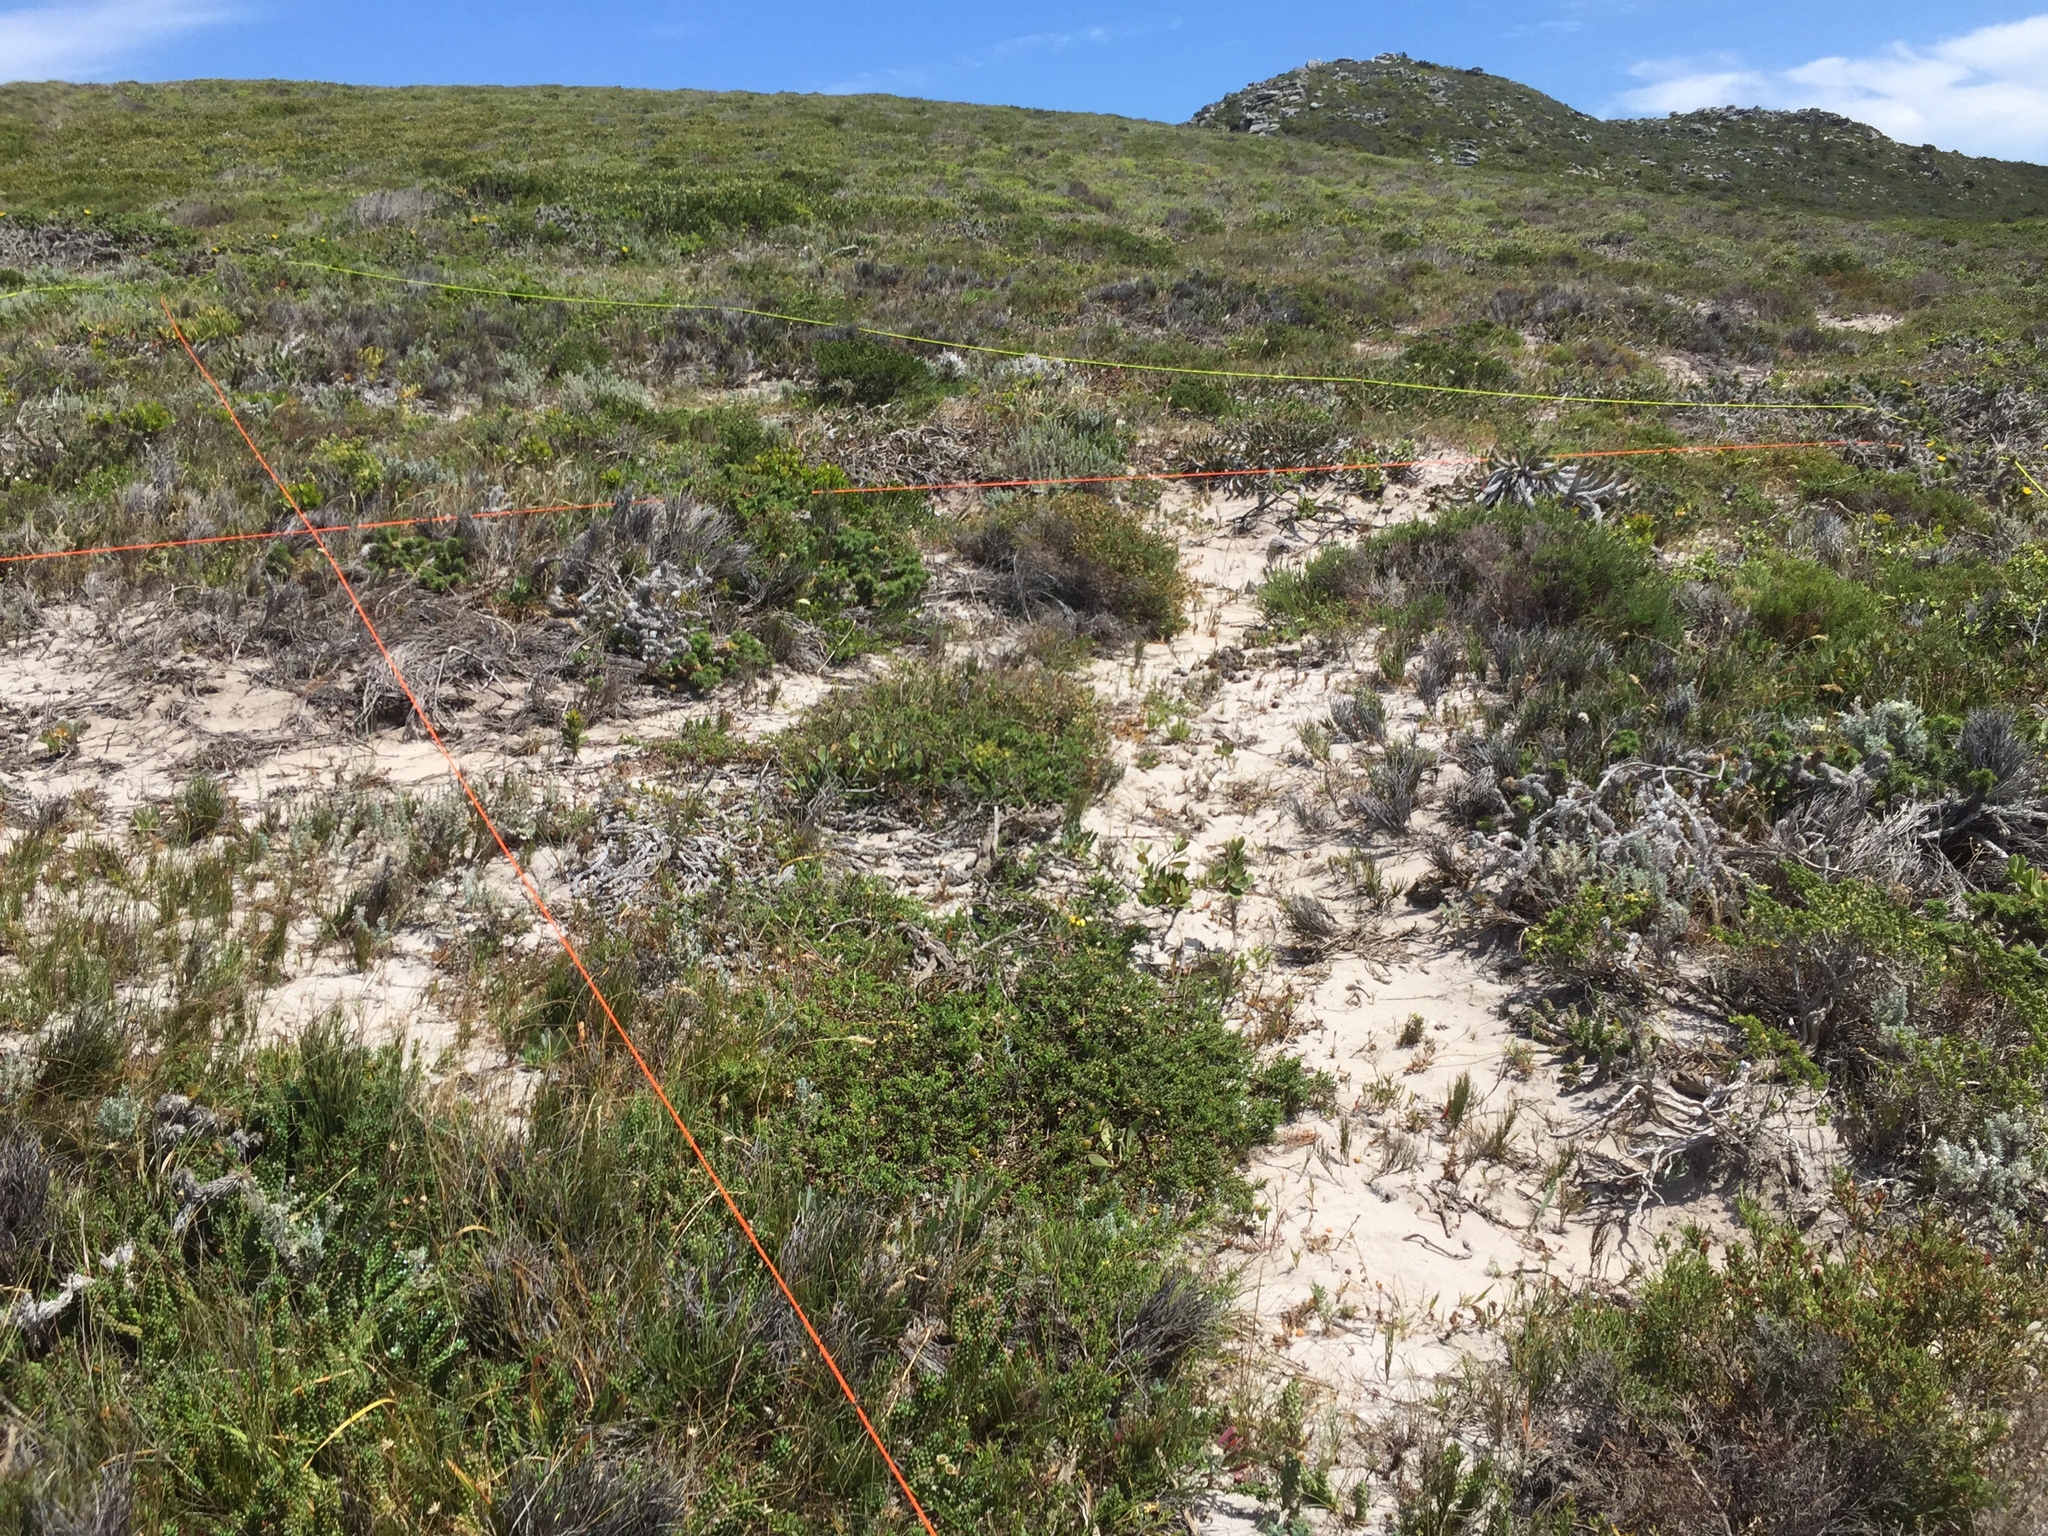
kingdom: Plantae
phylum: Tracheophyta
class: Magnoliopsida
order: Malpighiales
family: Euphorbiaceae
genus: Euphorbia
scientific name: Euphorbia caput-medusae
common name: Medusa's-head
